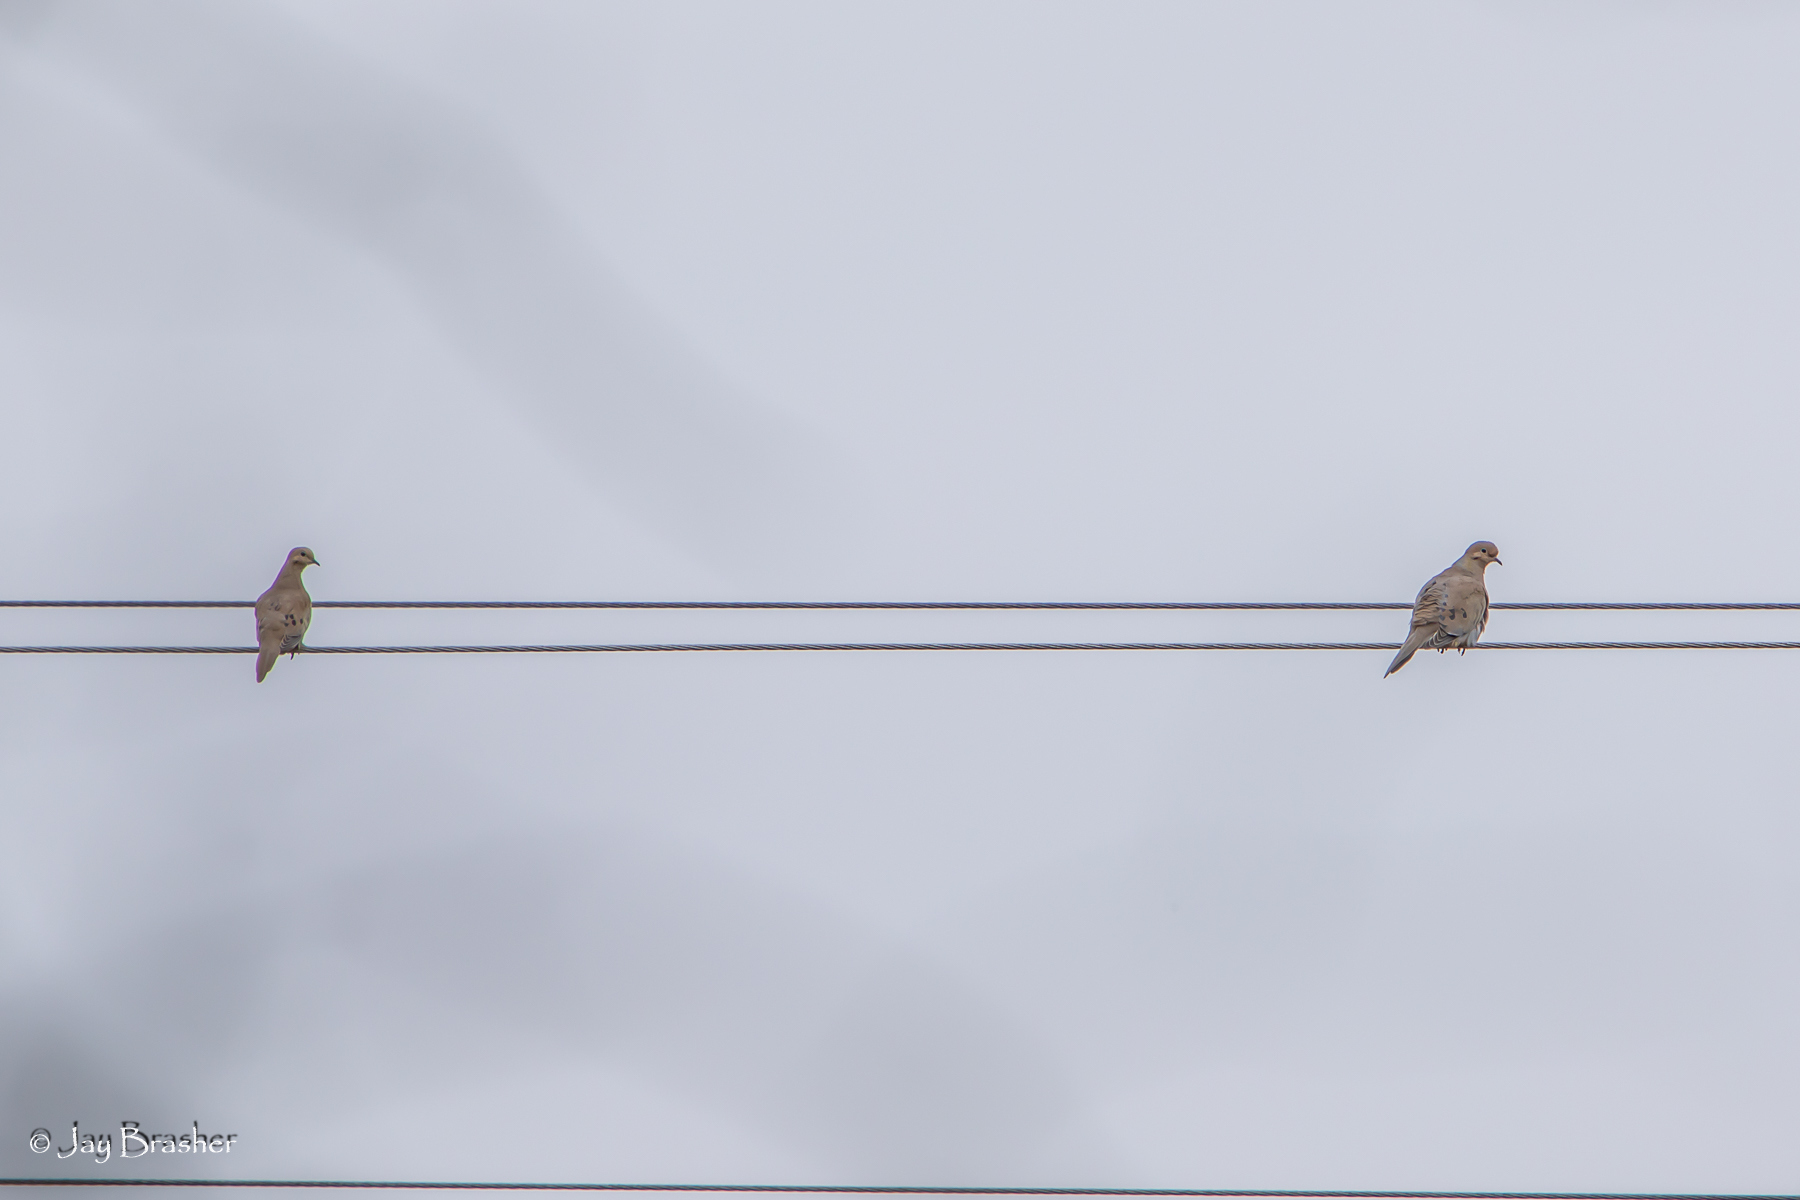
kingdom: Animalia
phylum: Chordata
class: Aves
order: Columbiformes
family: Columbidae
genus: Zenaida
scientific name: Zenaida macroura
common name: Mourning dove
